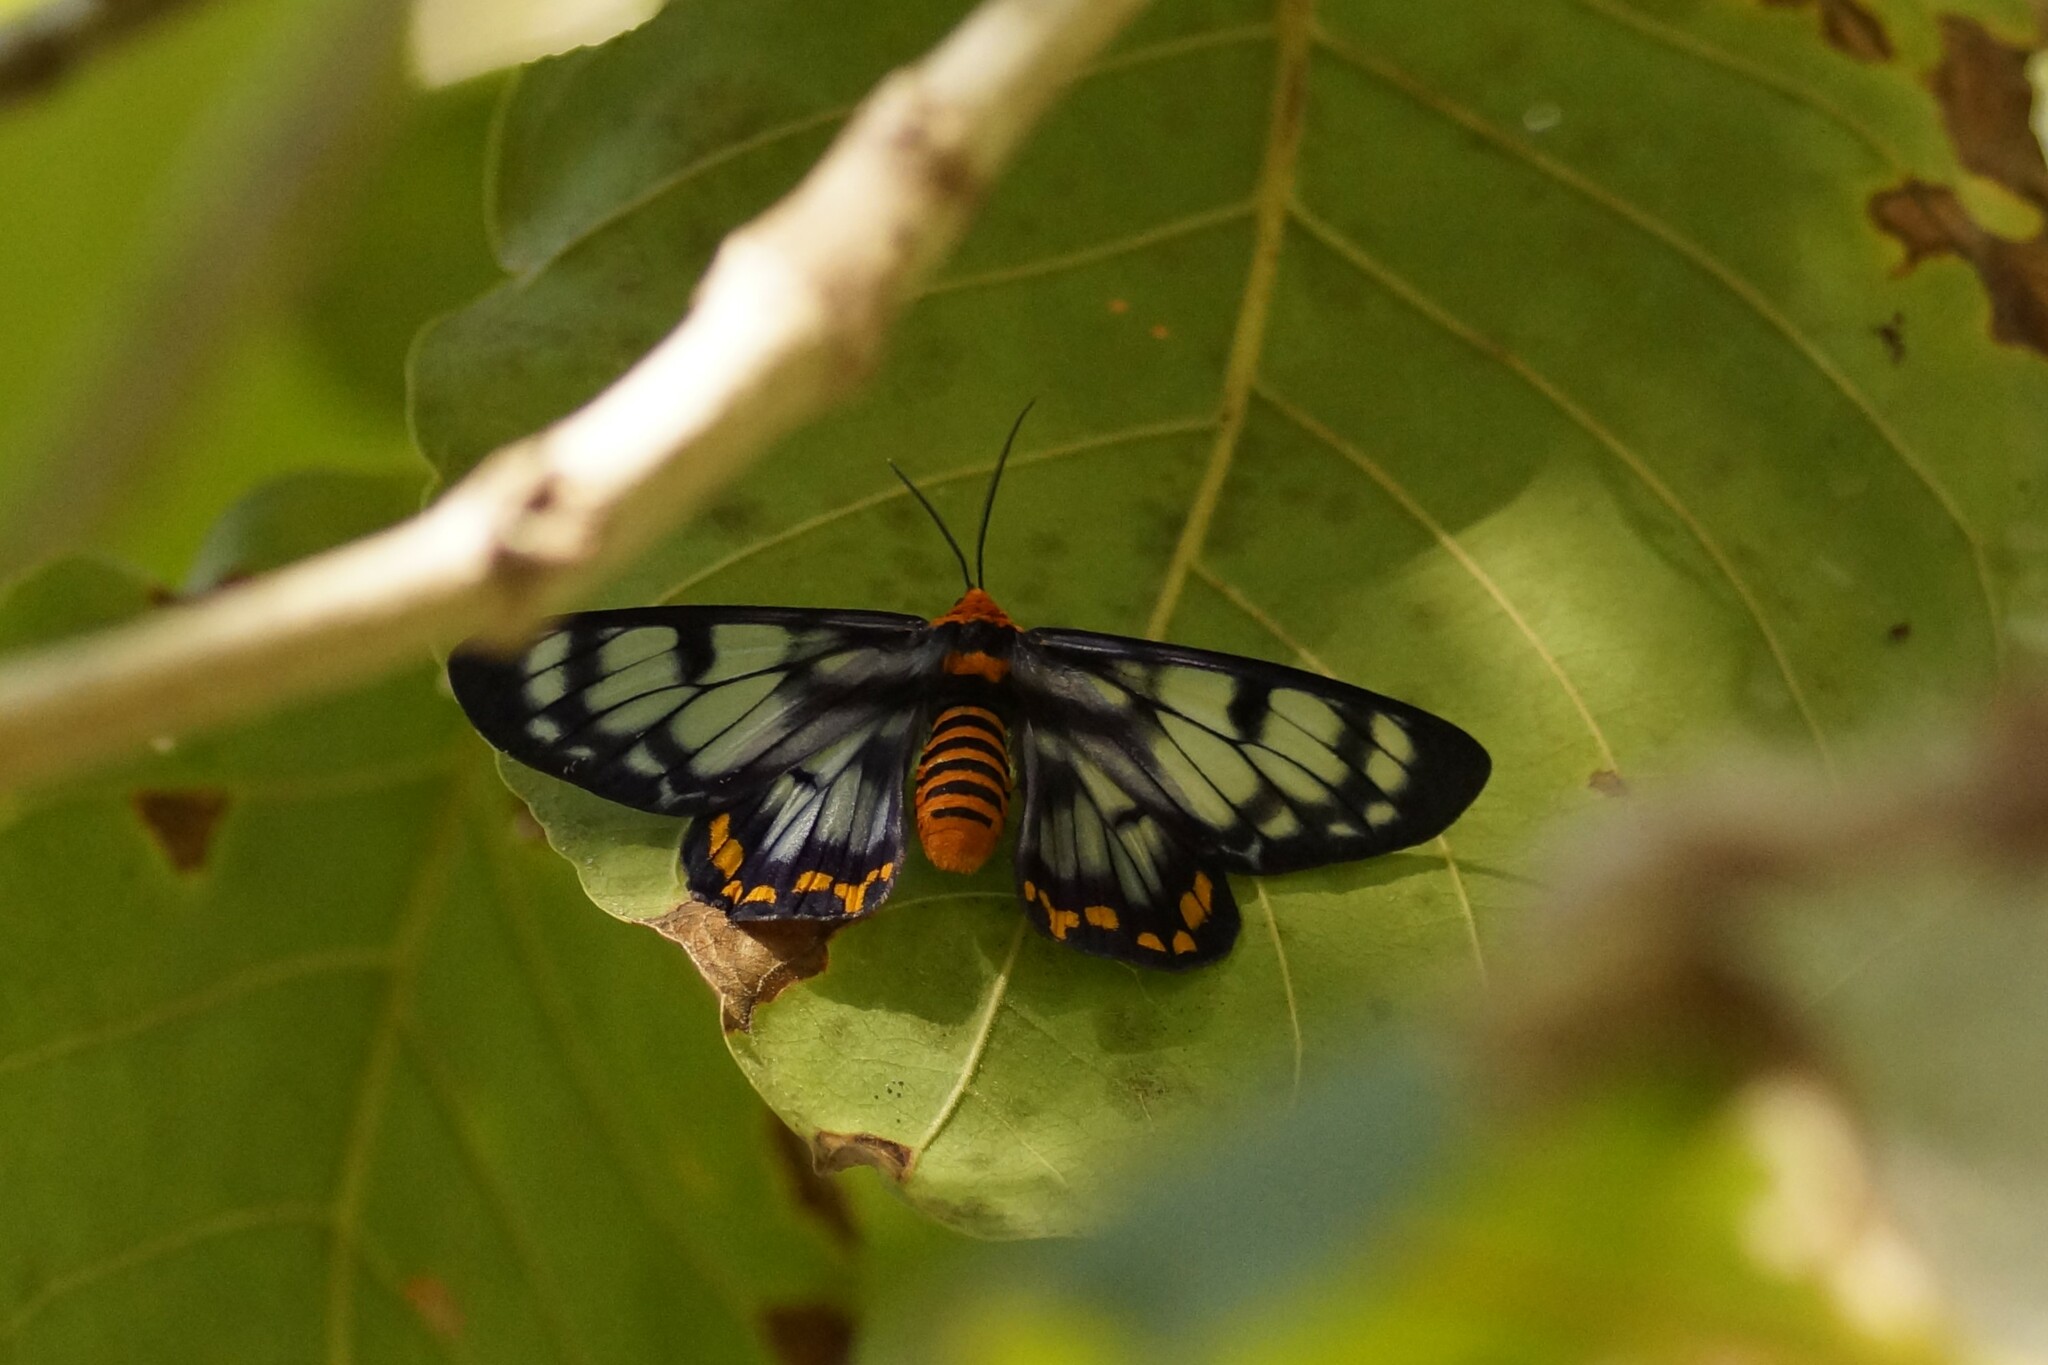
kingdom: Animalia
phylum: Arthropoda
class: Insecta
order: Lepidoptera
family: Geometridae
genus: Dysphania
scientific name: Dysphania numana
